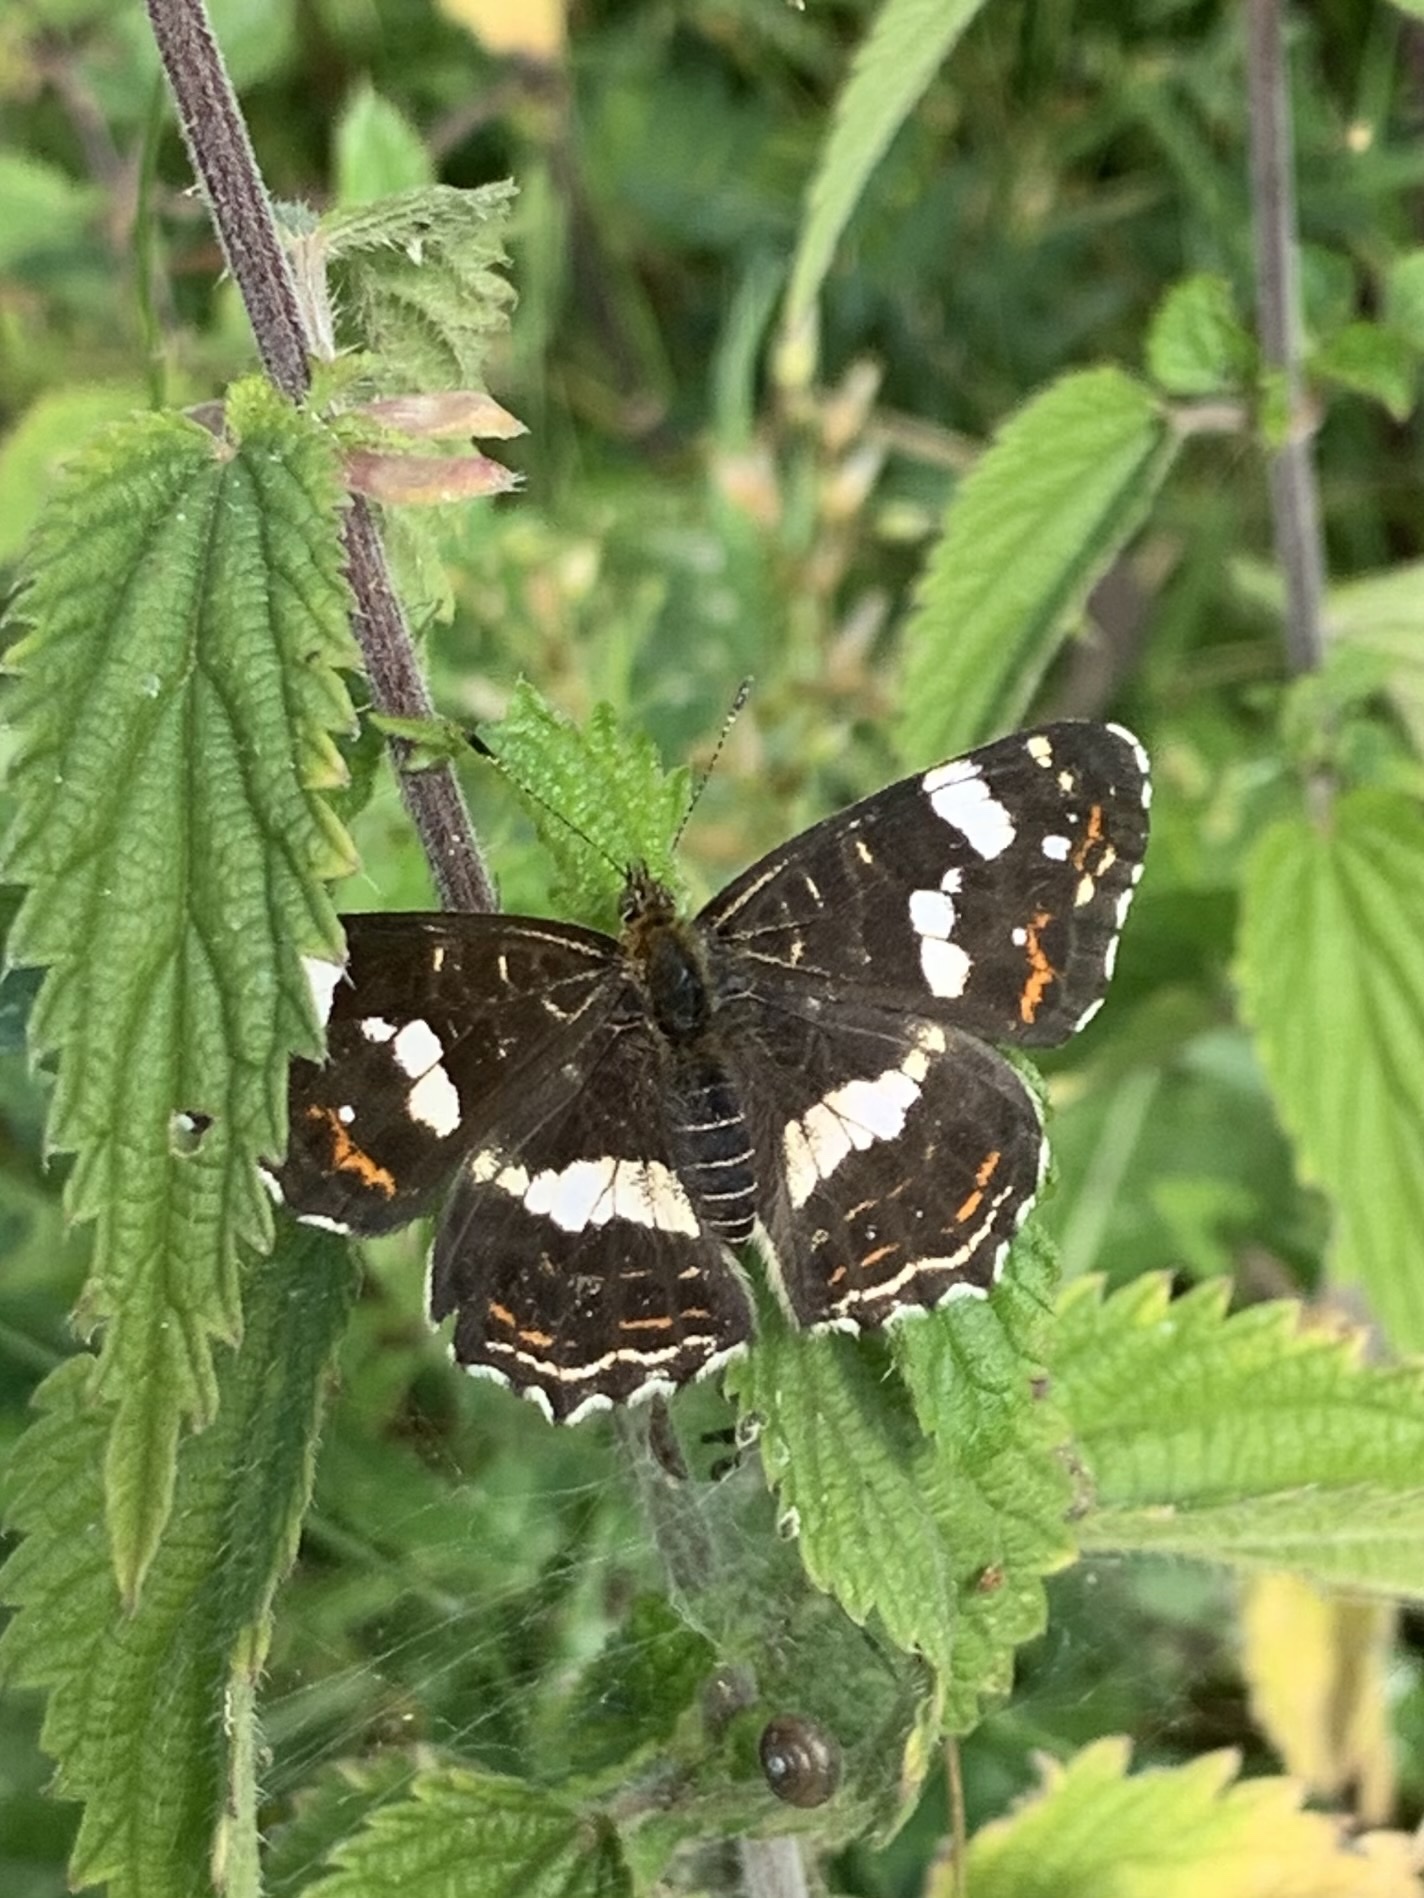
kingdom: Animalia
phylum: Arthropoda
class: Insecta
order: Lepidoptera
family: Nymphalidae
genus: Araschnia
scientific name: Araschnia levana
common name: Map butterfly
